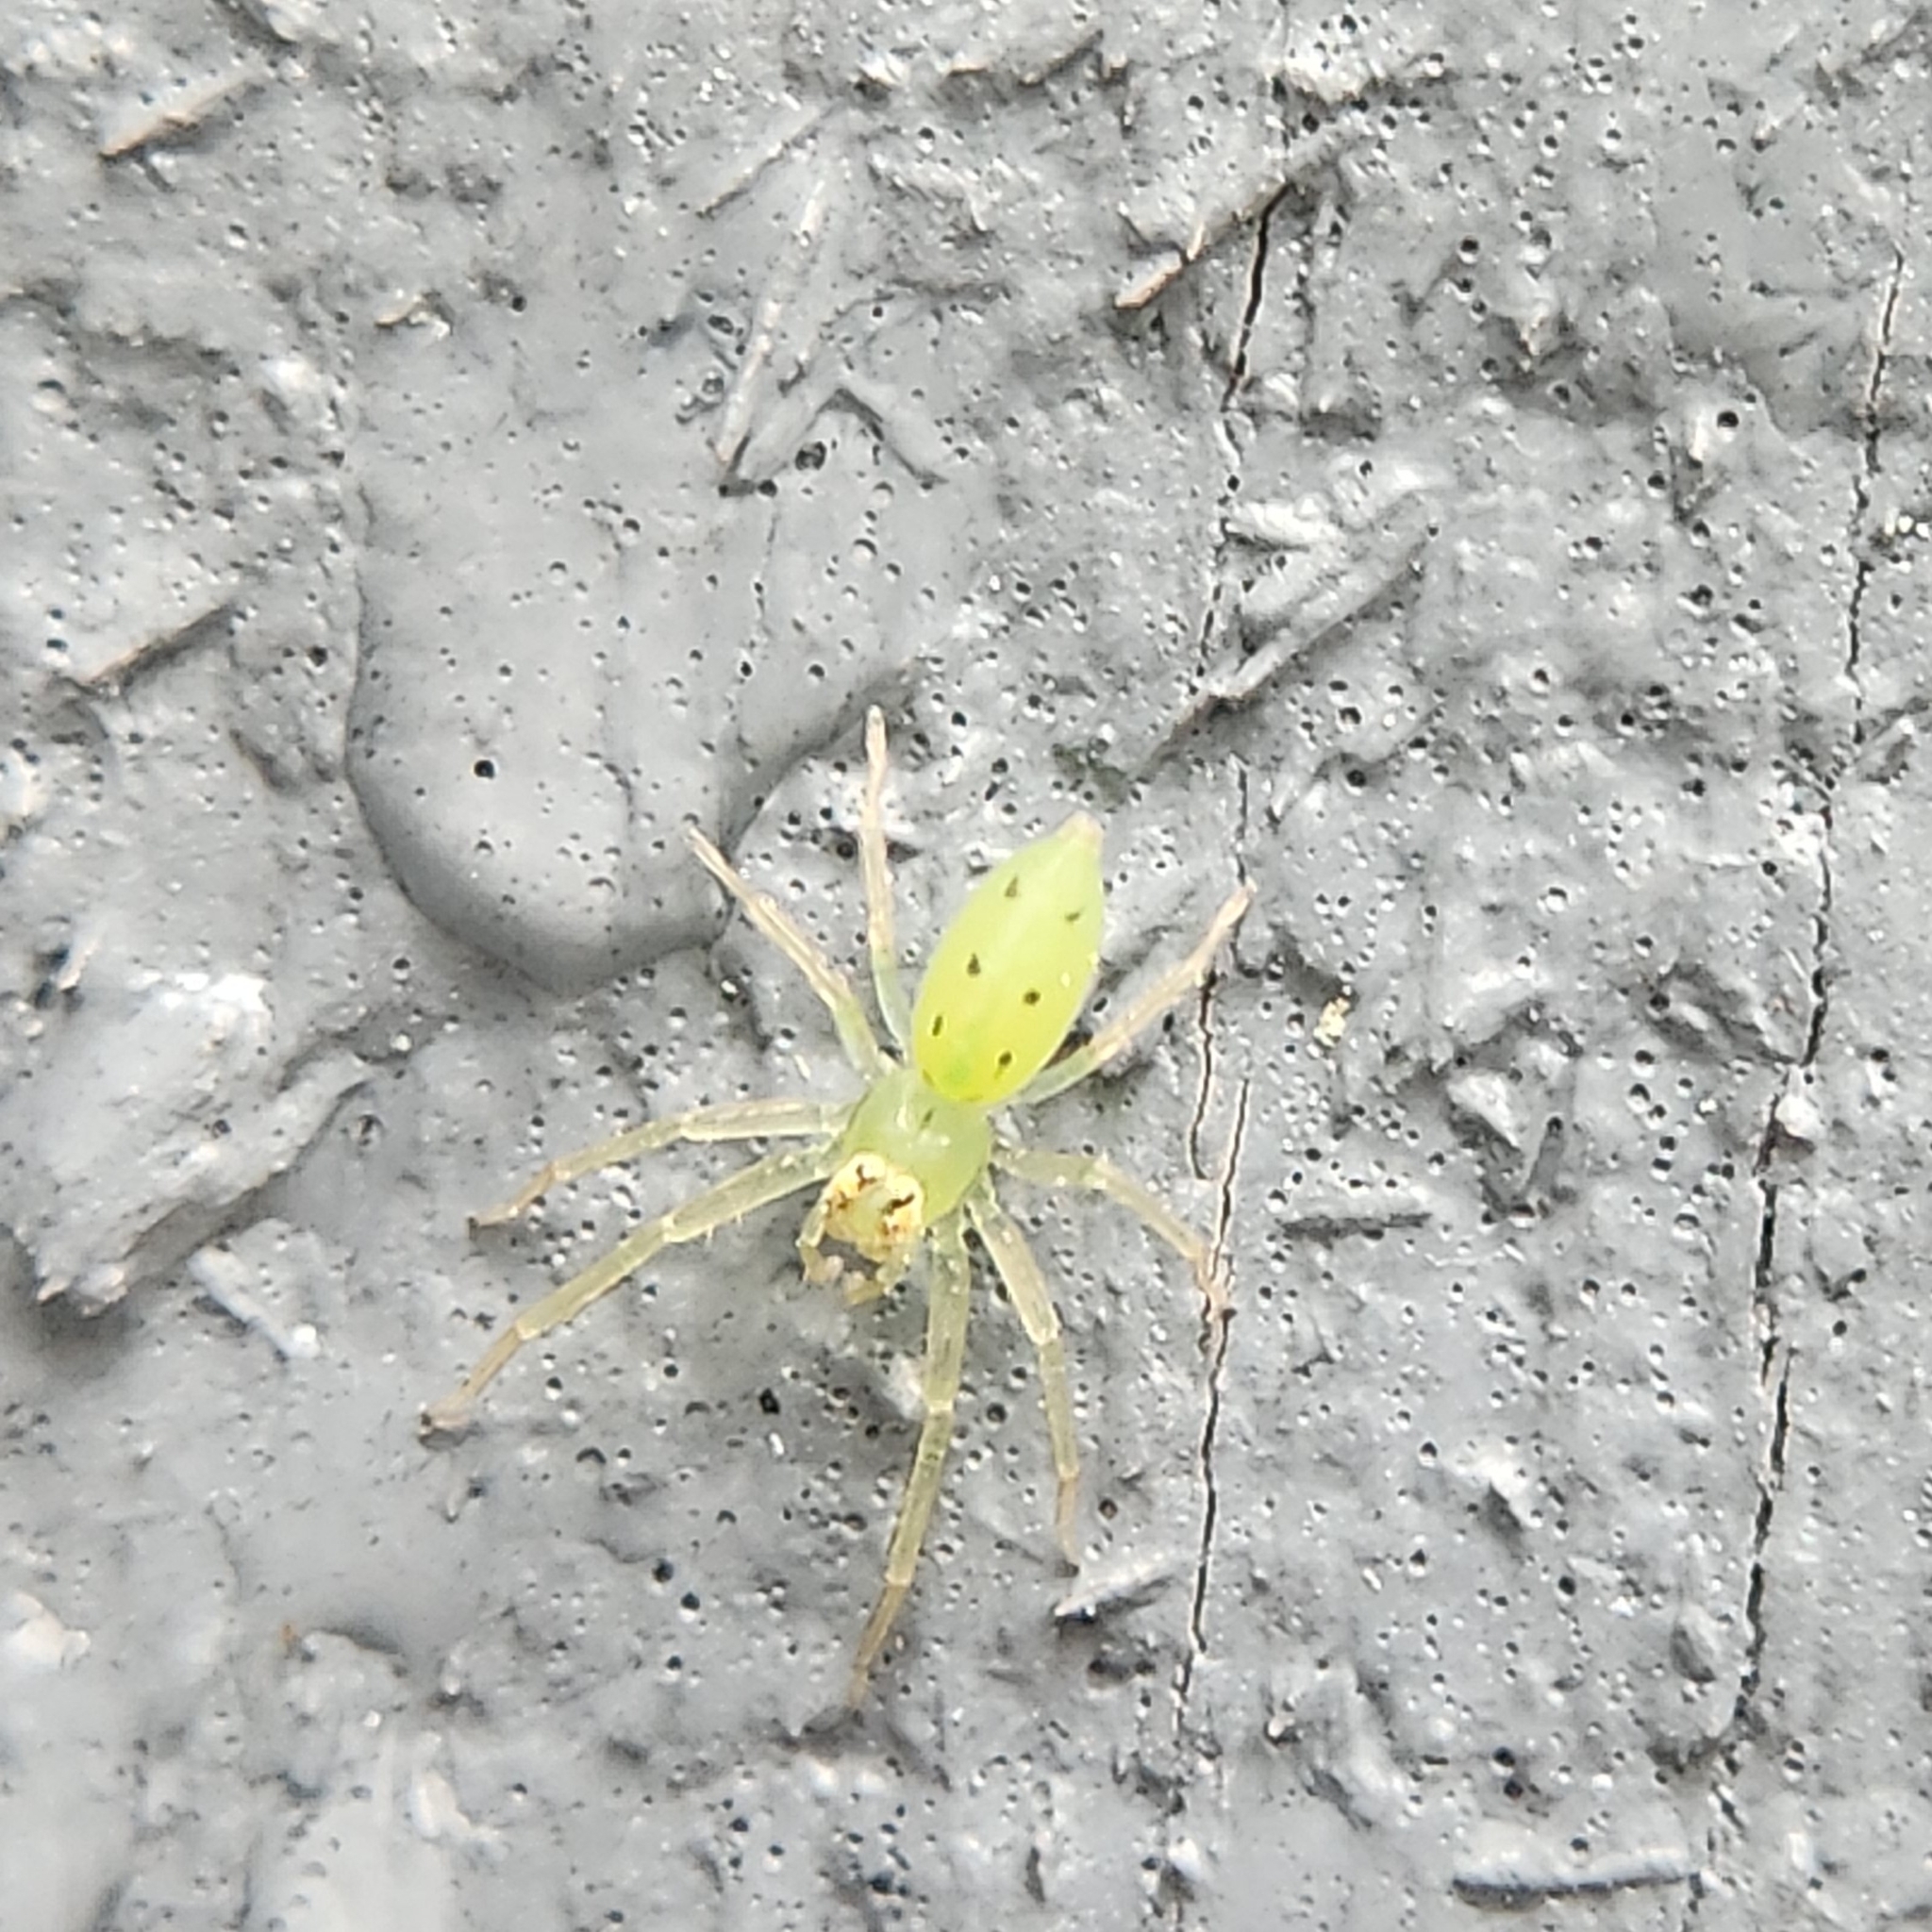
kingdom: Animalia
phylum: Arthropoda
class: Arachnida
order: Araneae
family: Salticidae
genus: Lyssomanes
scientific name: Lyssomanes viridis
